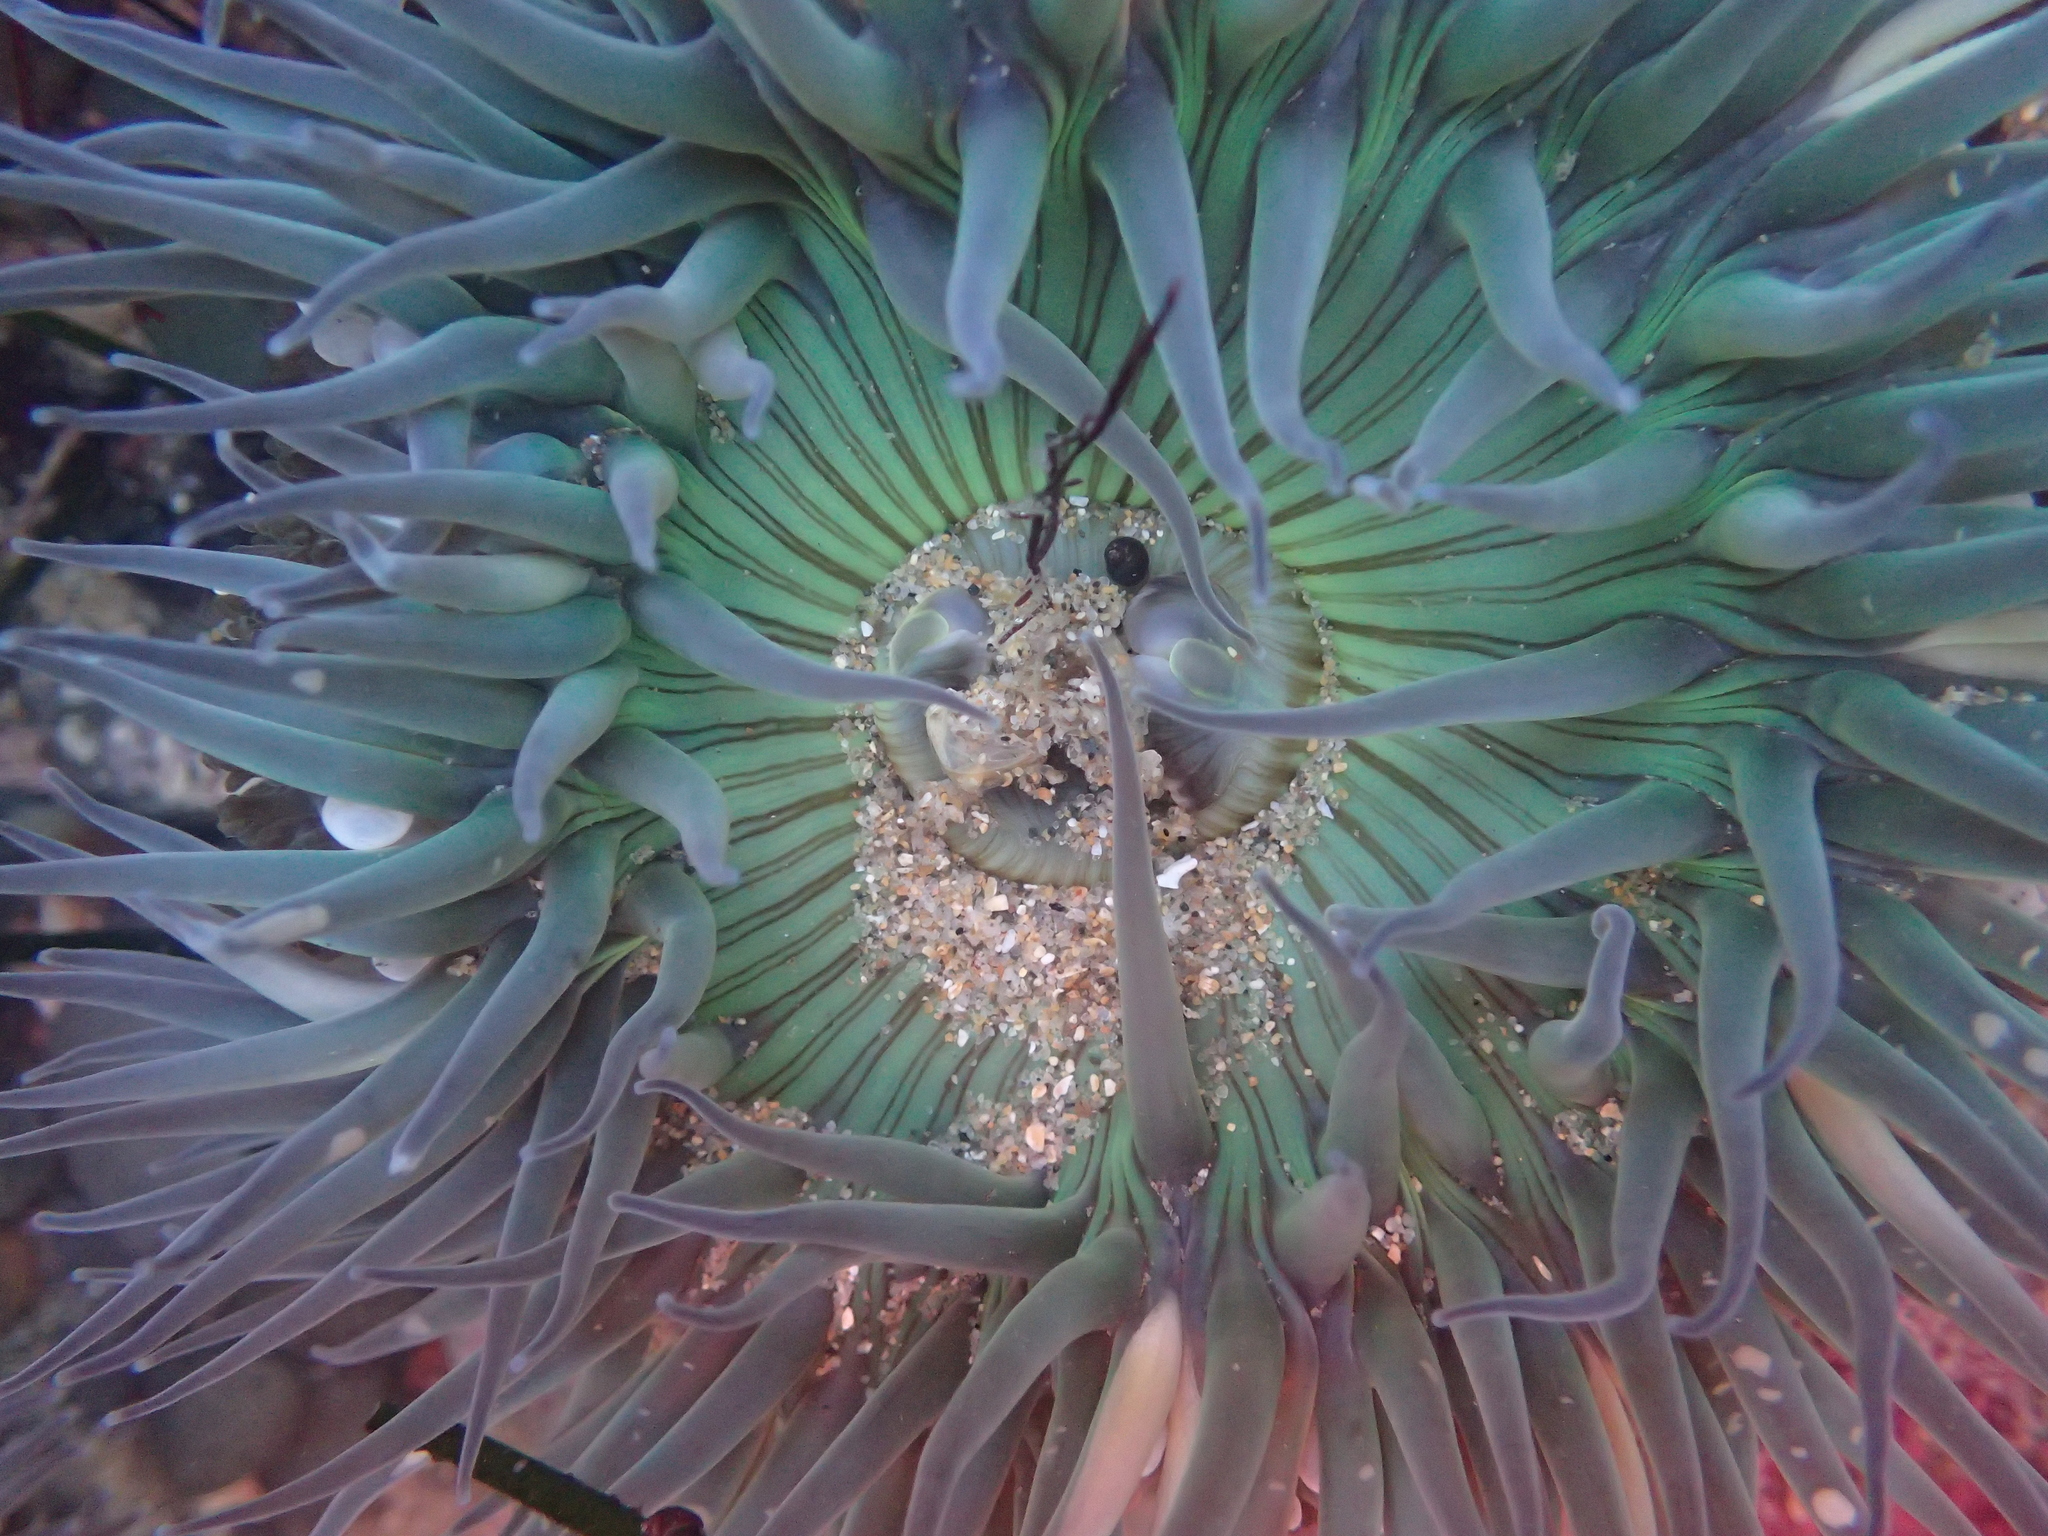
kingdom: Animalia
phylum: Cnidaria
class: Anthozoa
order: Actiniaria
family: Actiniidae
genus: Anthopleura
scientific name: Anthopleura sola
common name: Sun anemone
